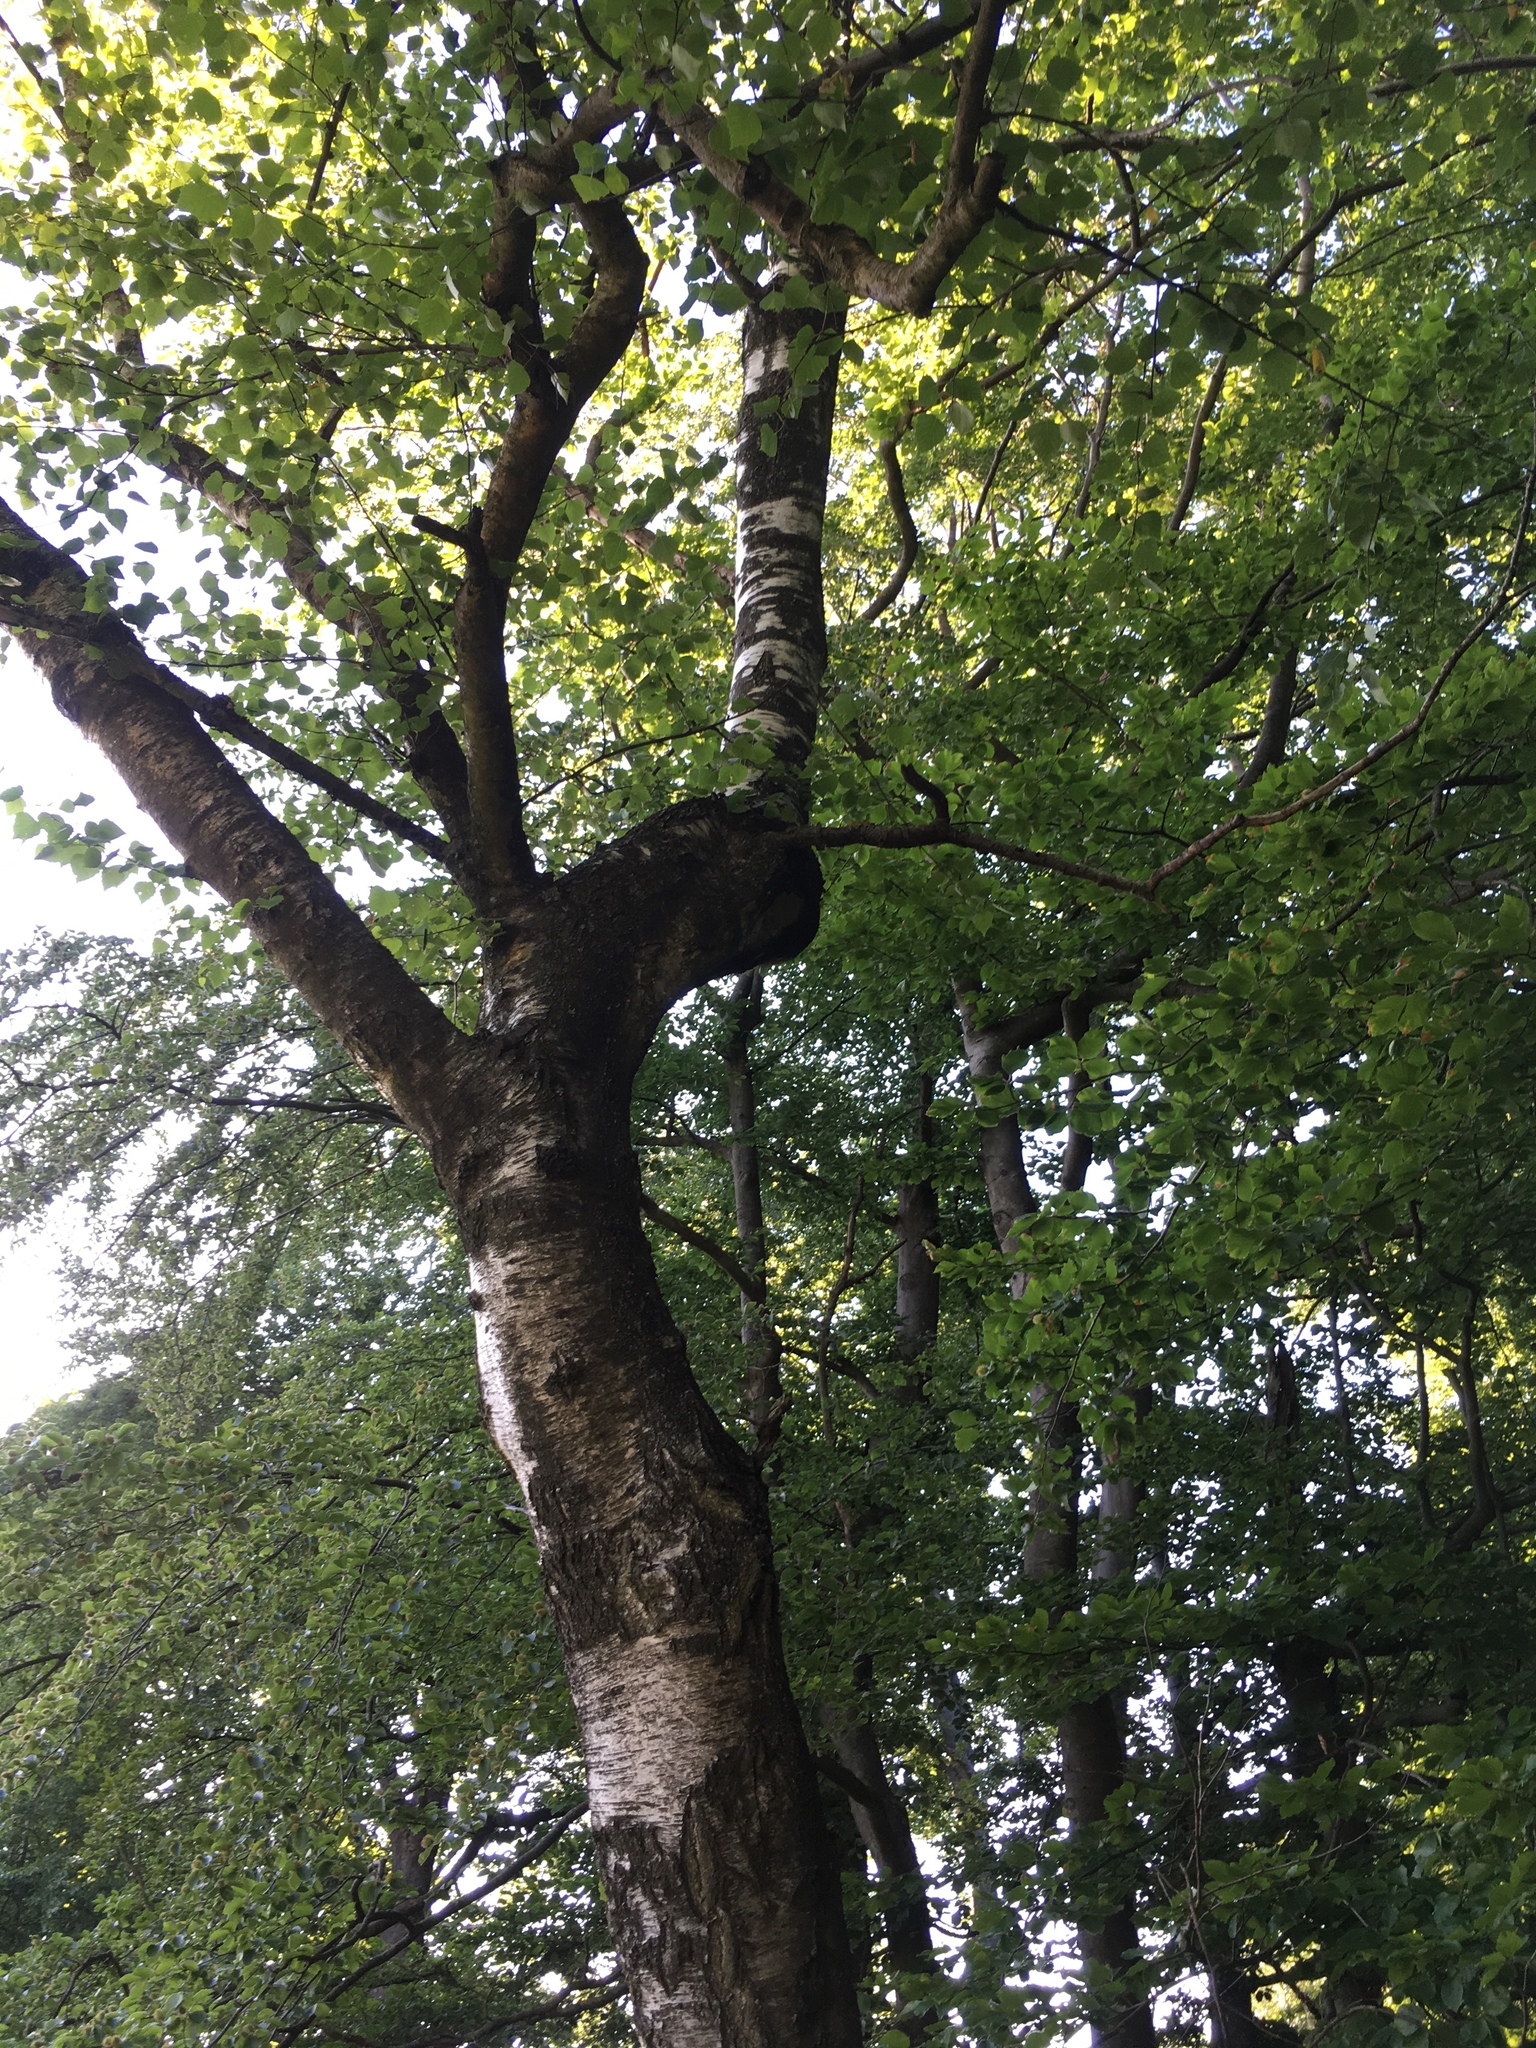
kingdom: Plantae
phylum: Tracheophyta
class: Magnoliopsida
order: Fagales
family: Betulaceae
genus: Betula
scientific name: Betula pendula
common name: Silver birch
